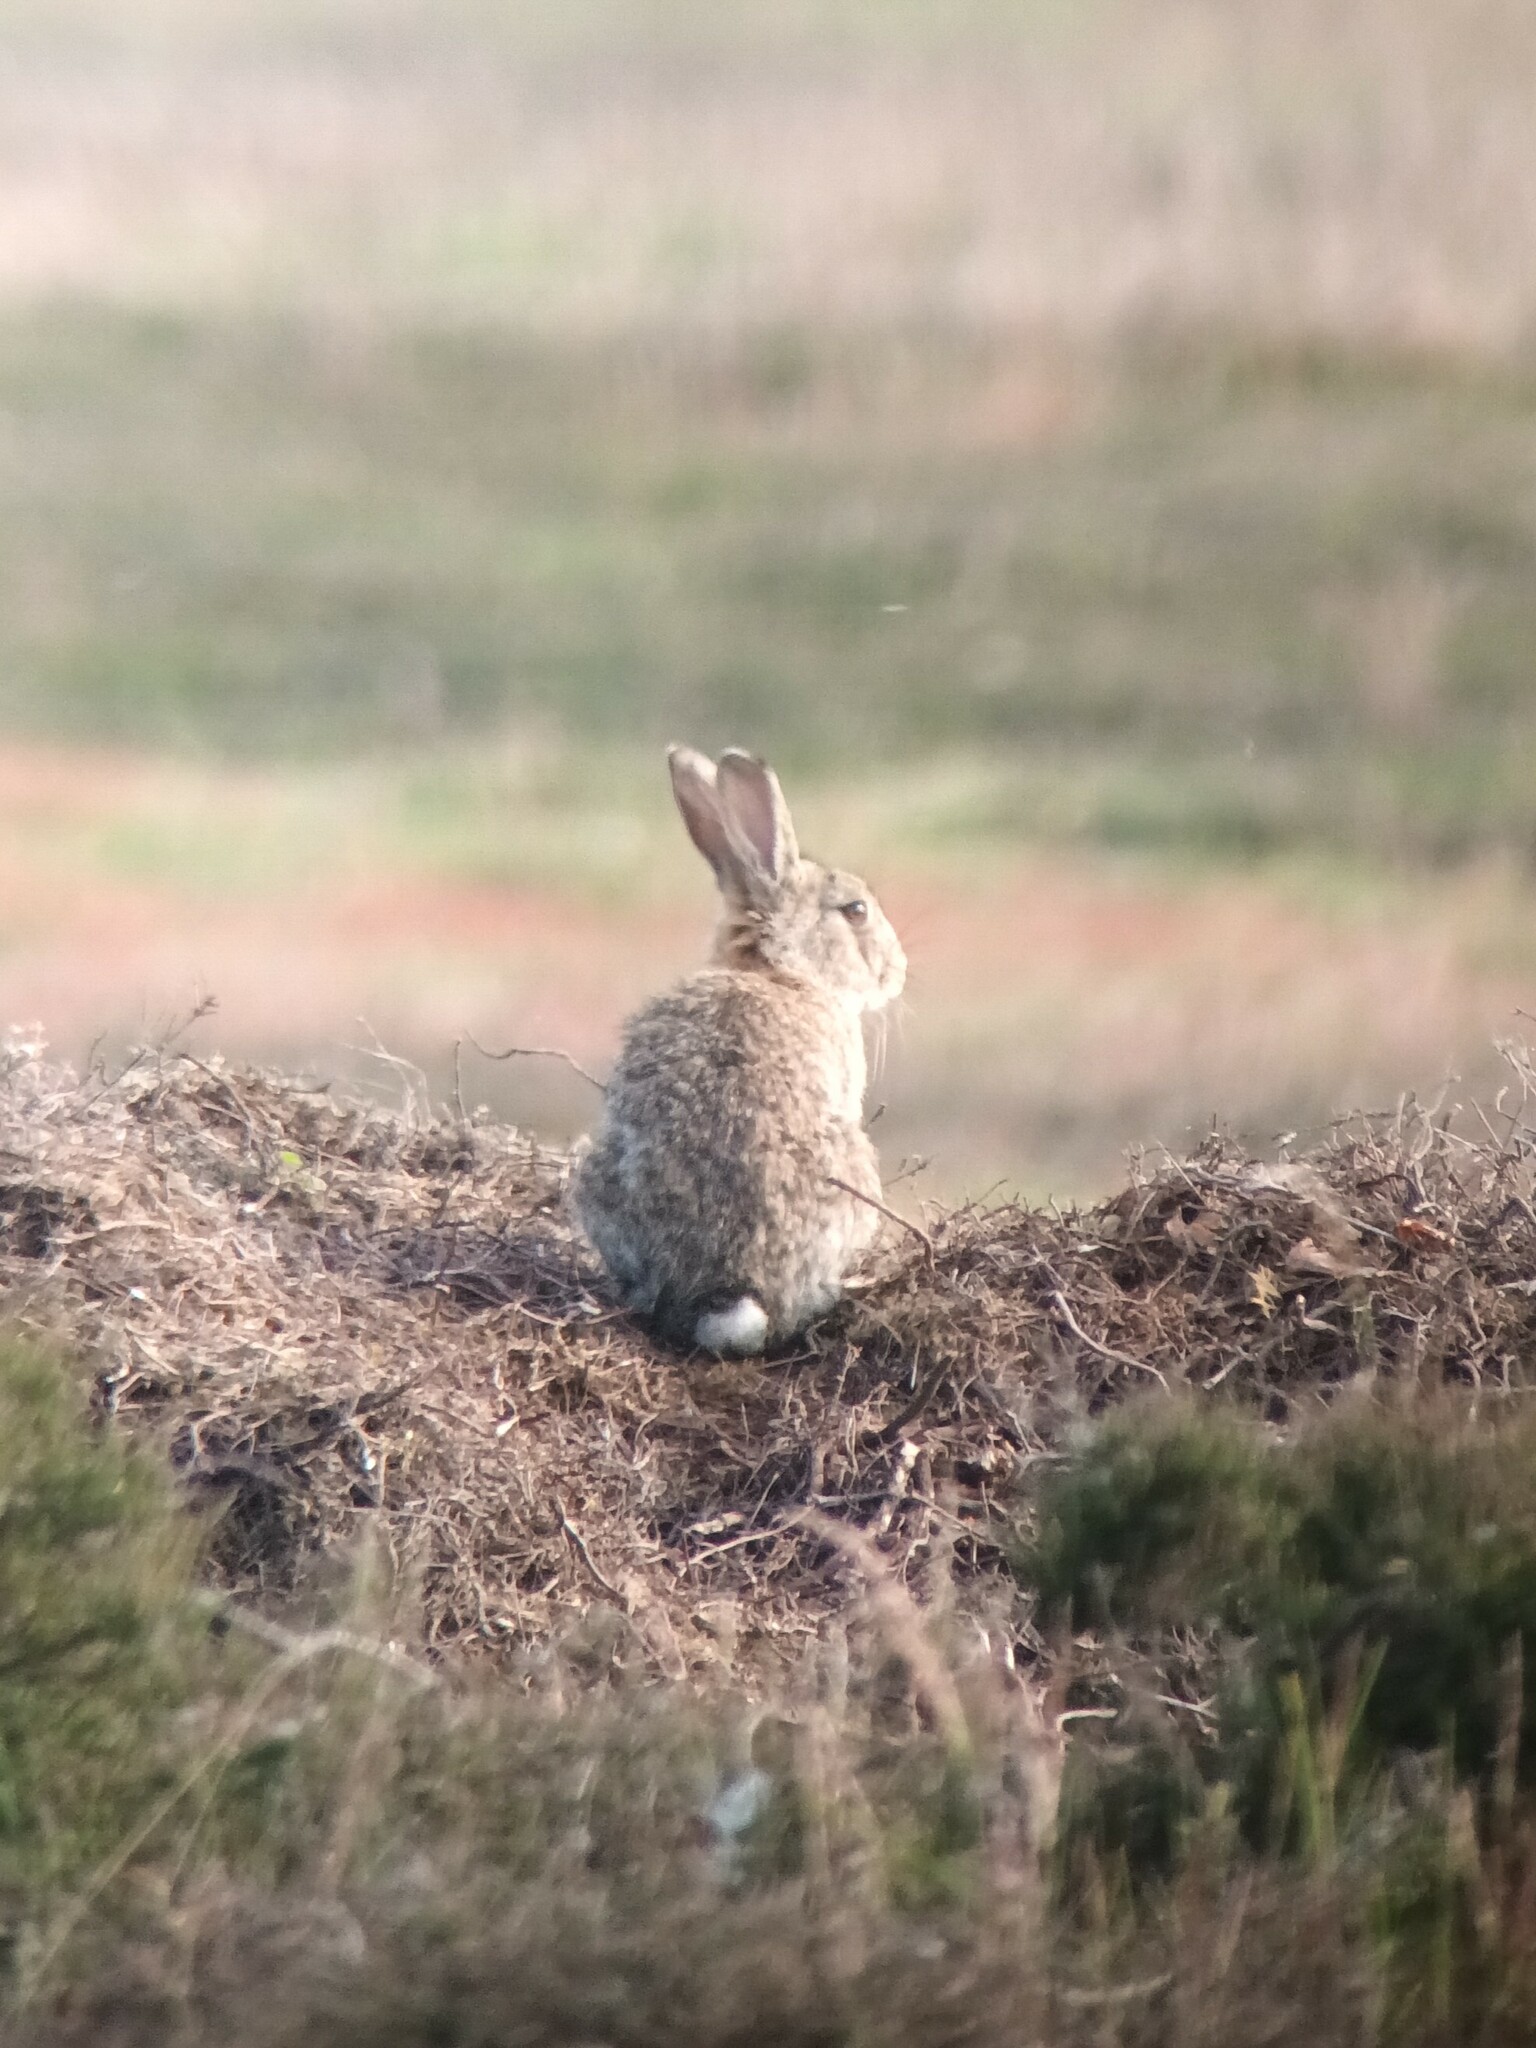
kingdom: Animalia
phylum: Chordata
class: Mammalia
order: Lagomorpha
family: Leporidae
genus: Oryctolagus
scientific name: Oryctolagus cuniculus
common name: European rabbit
